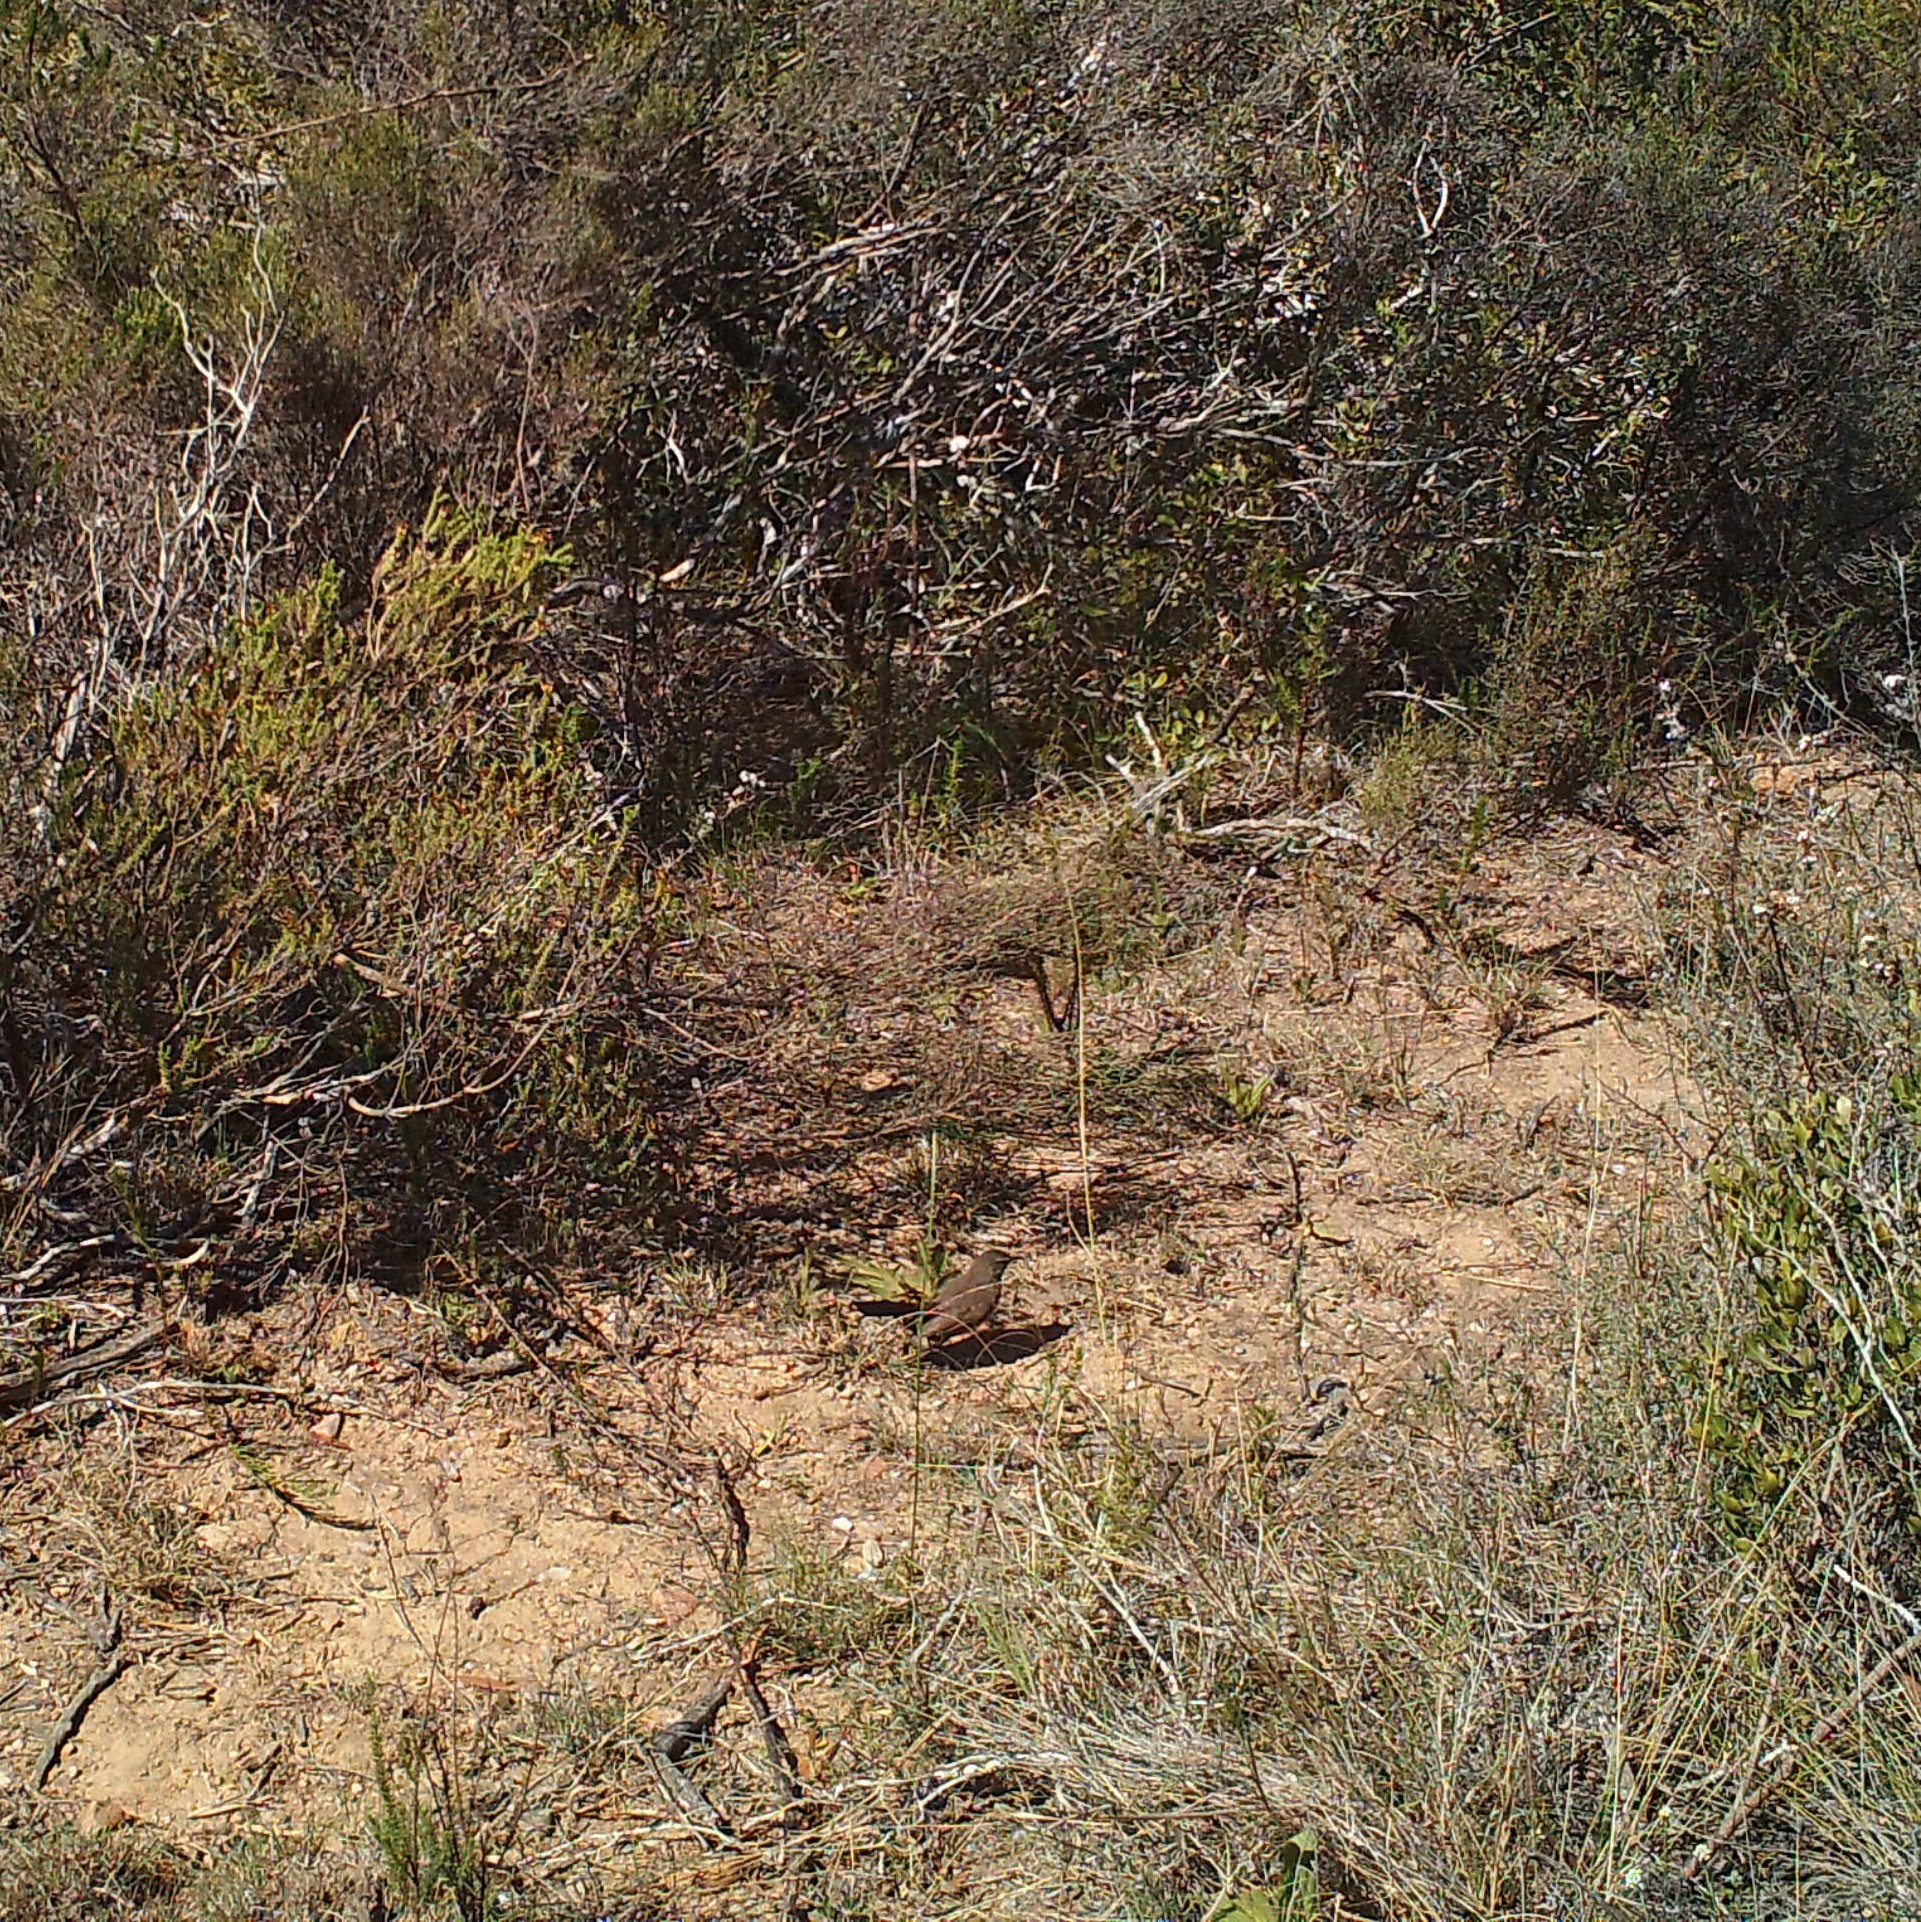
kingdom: Animalia
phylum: Chordata
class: Aves
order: Passeriformes
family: Muscicapidae
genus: Erythropygia
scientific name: Erythropygia coryphoeus
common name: Karoo scrub robin
